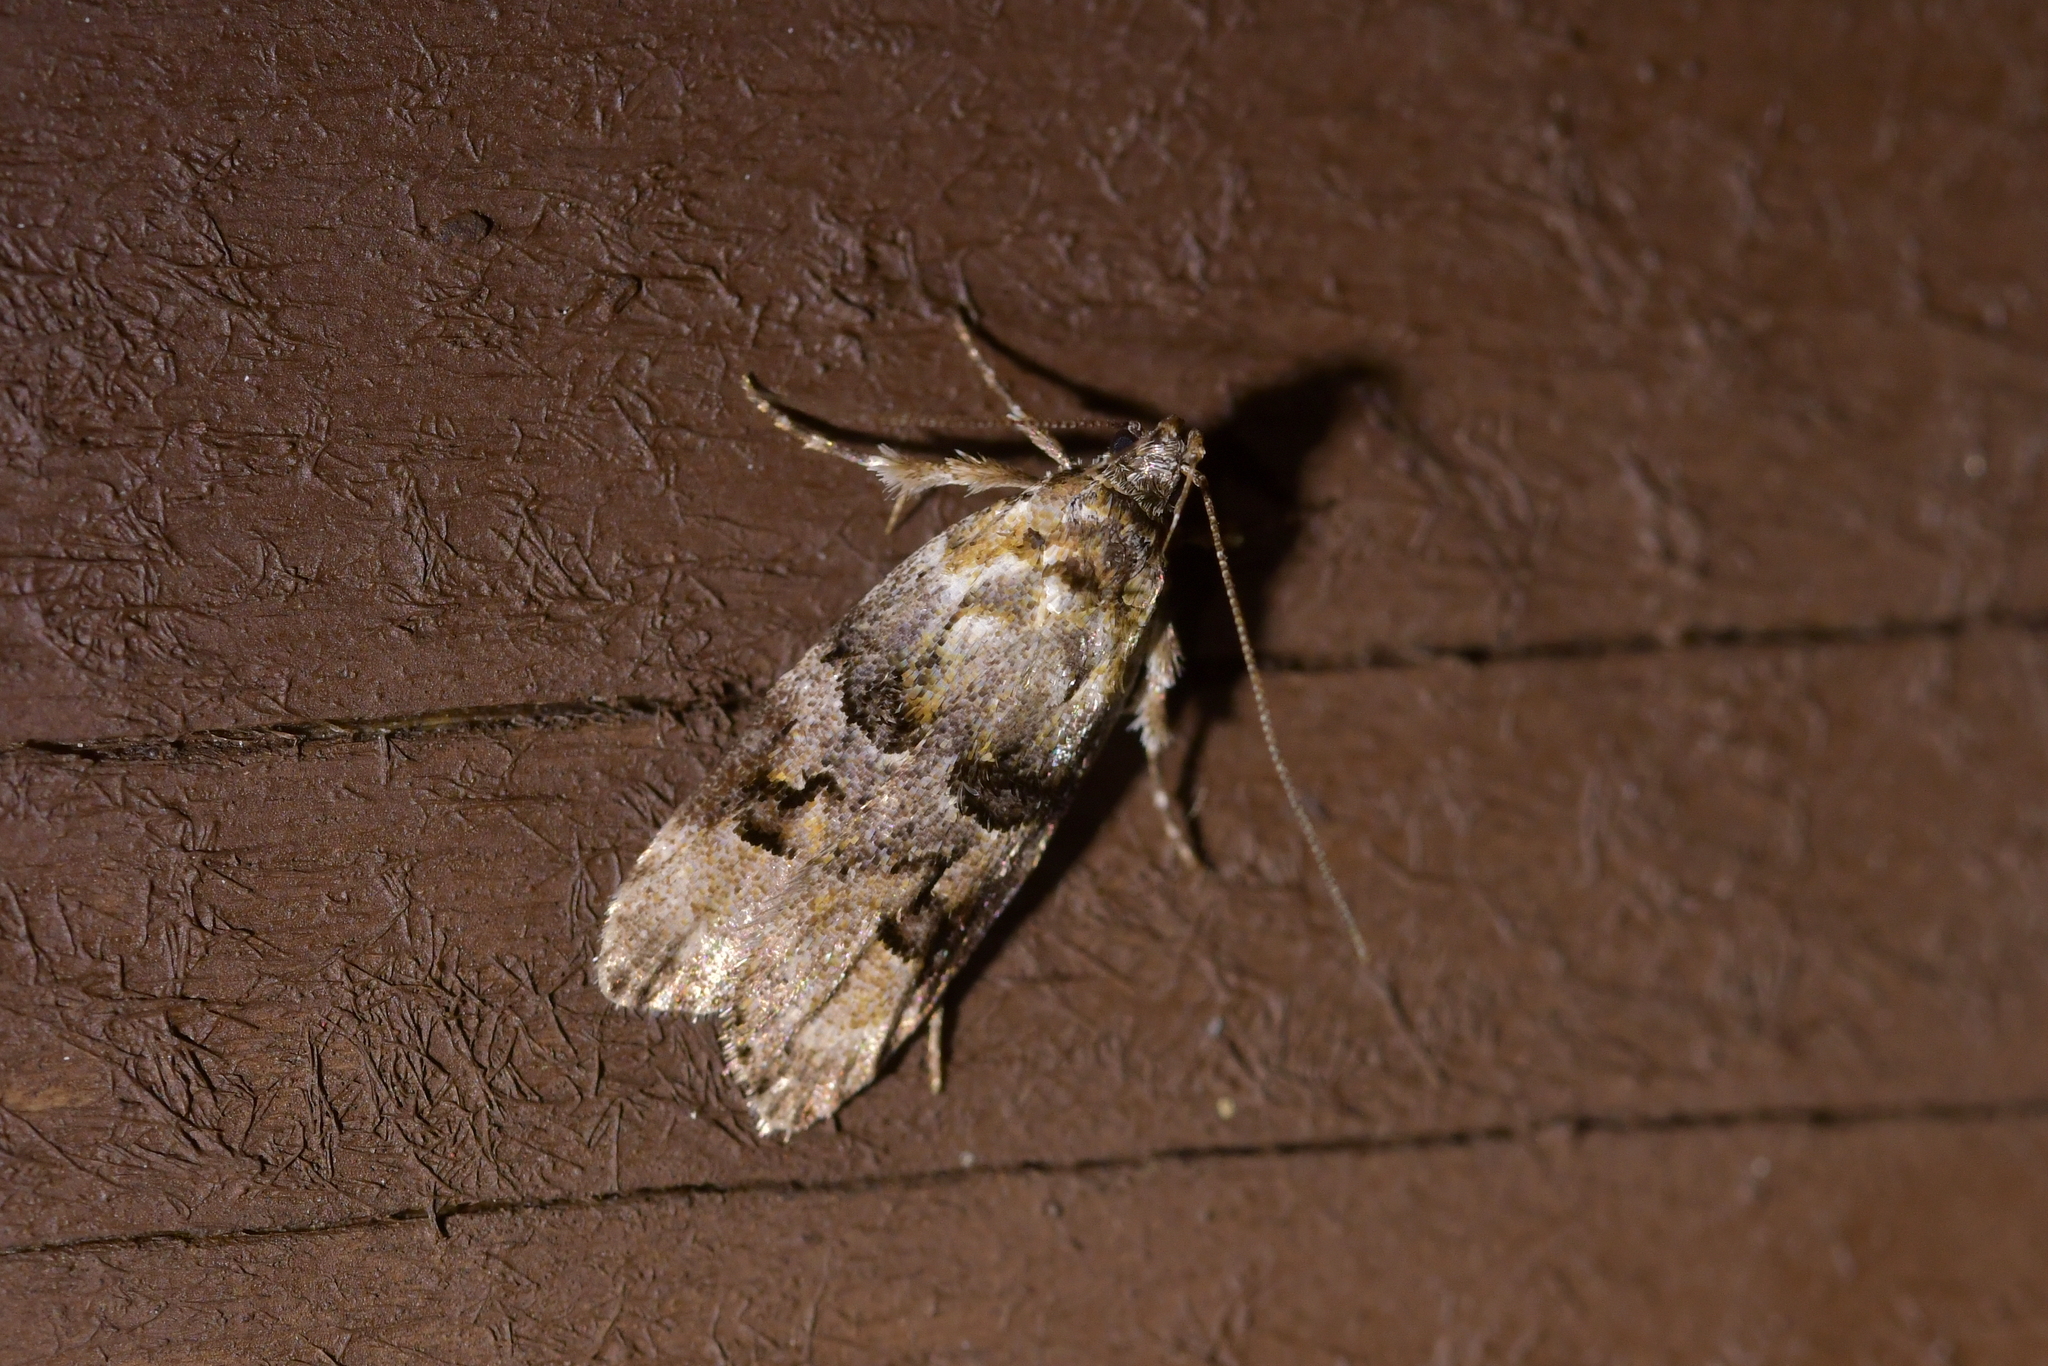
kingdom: Animalia
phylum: Arthropoda
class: Insecta
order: Lepidoptera
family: Oecophoridae
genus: Izatha
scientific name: Izatha metadelta
